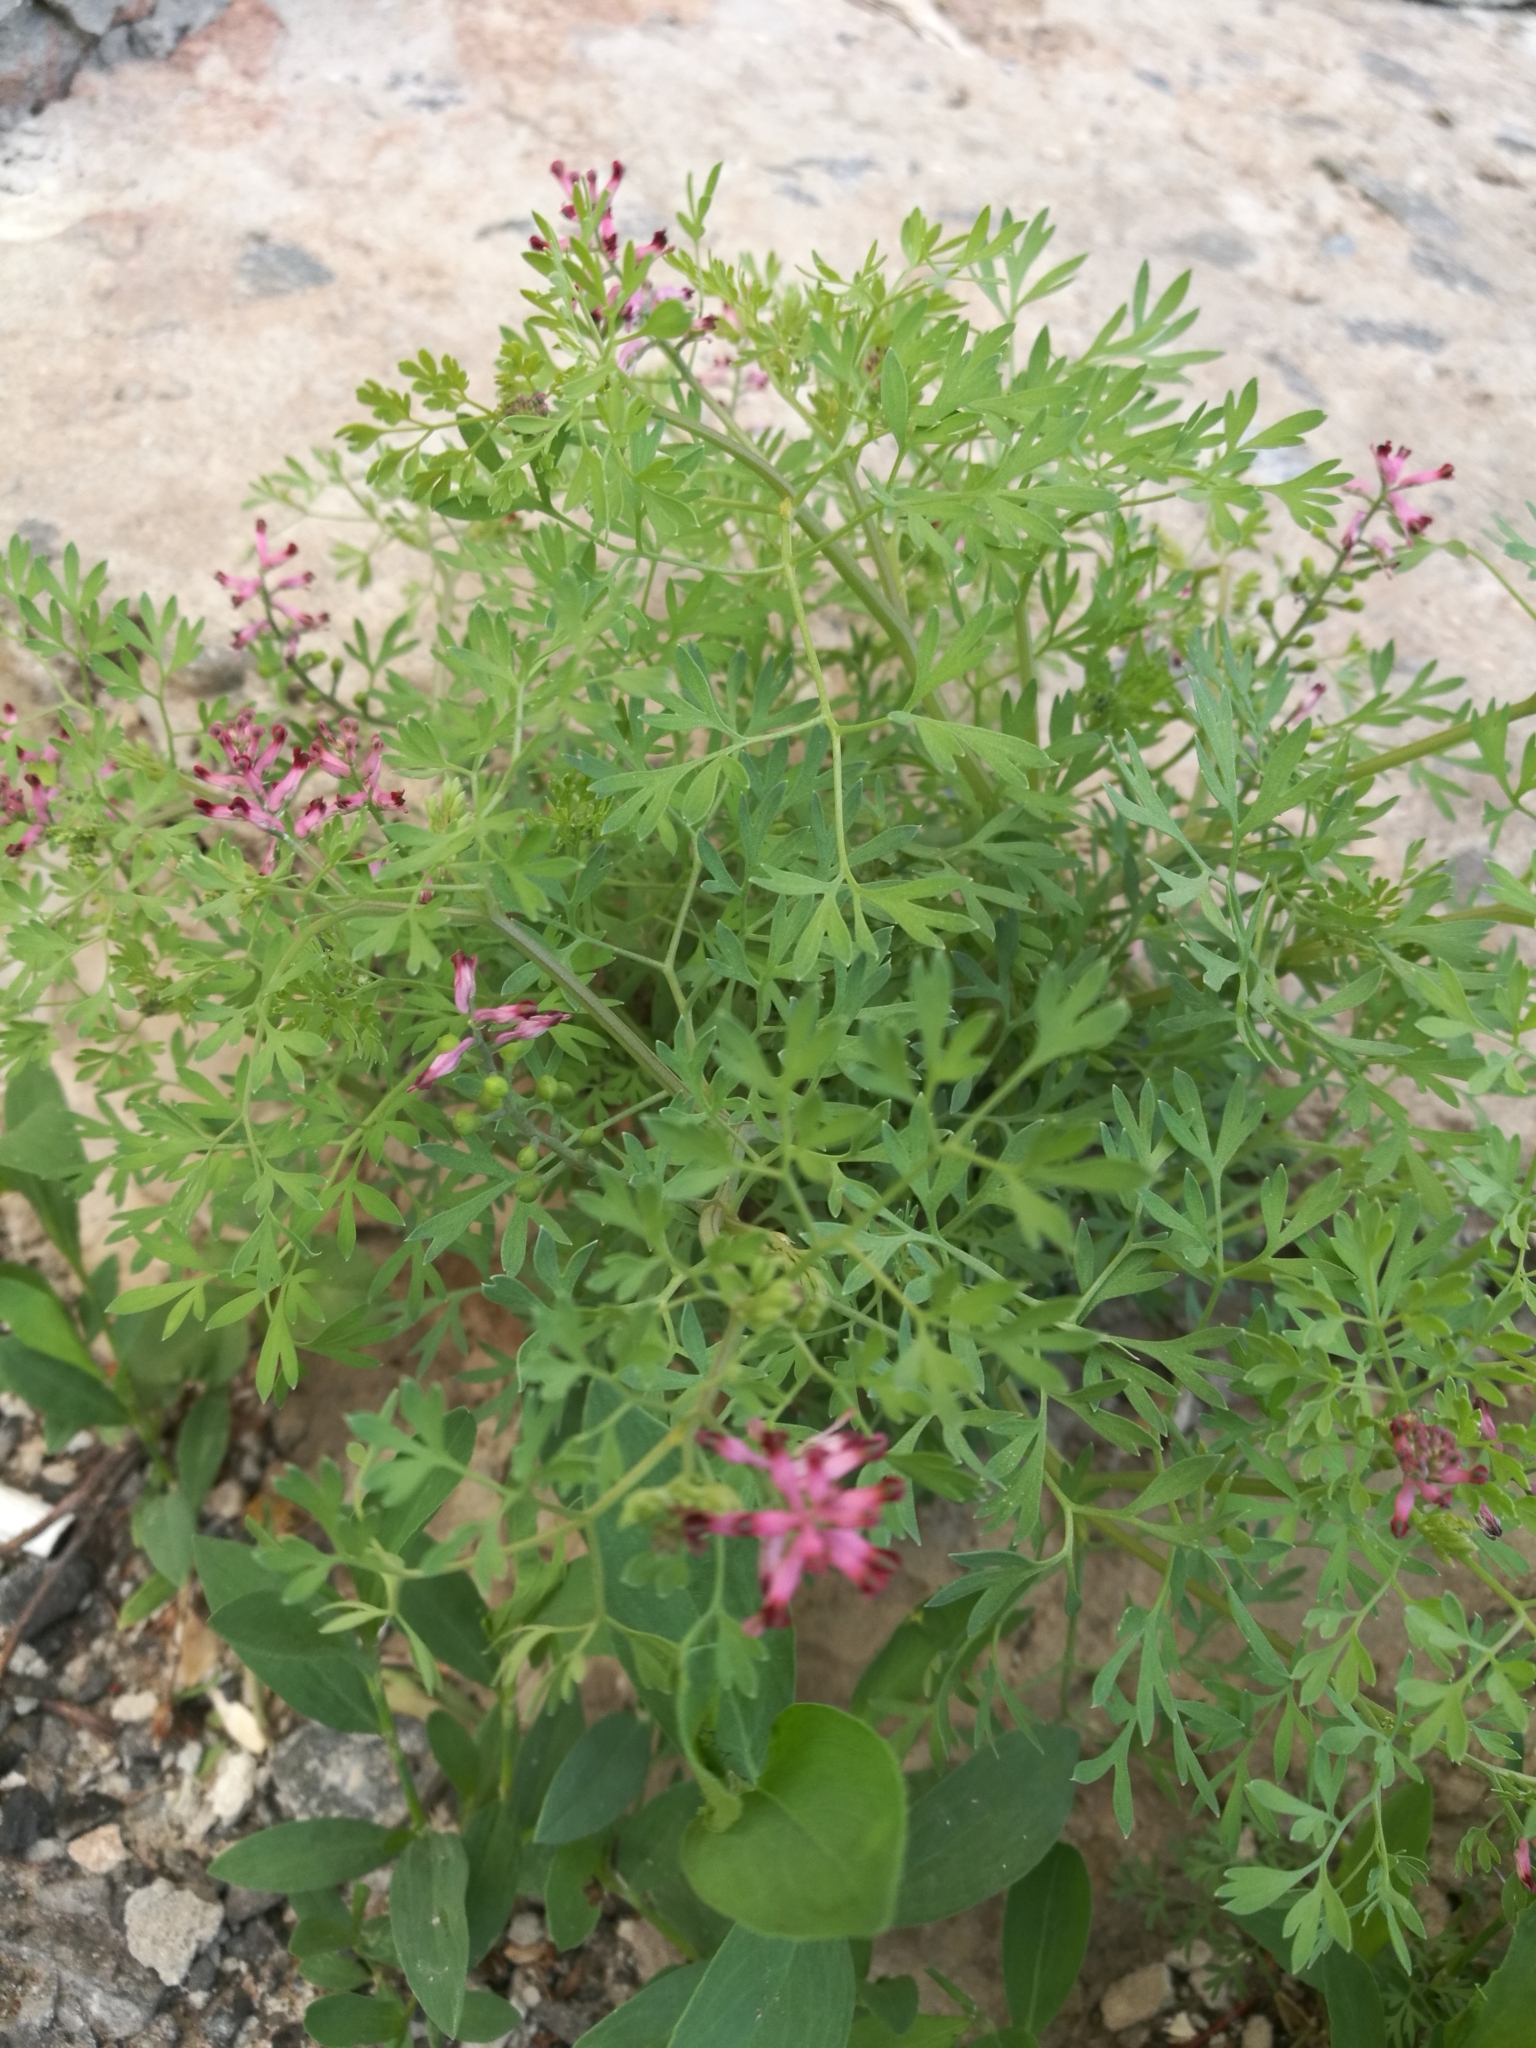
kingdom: Plantae
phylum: Tracheophyta
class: Magnoliopsida
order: Ranunculales
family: Papaveraceae
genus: Fumaria
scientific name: Fumaria schleicheri
